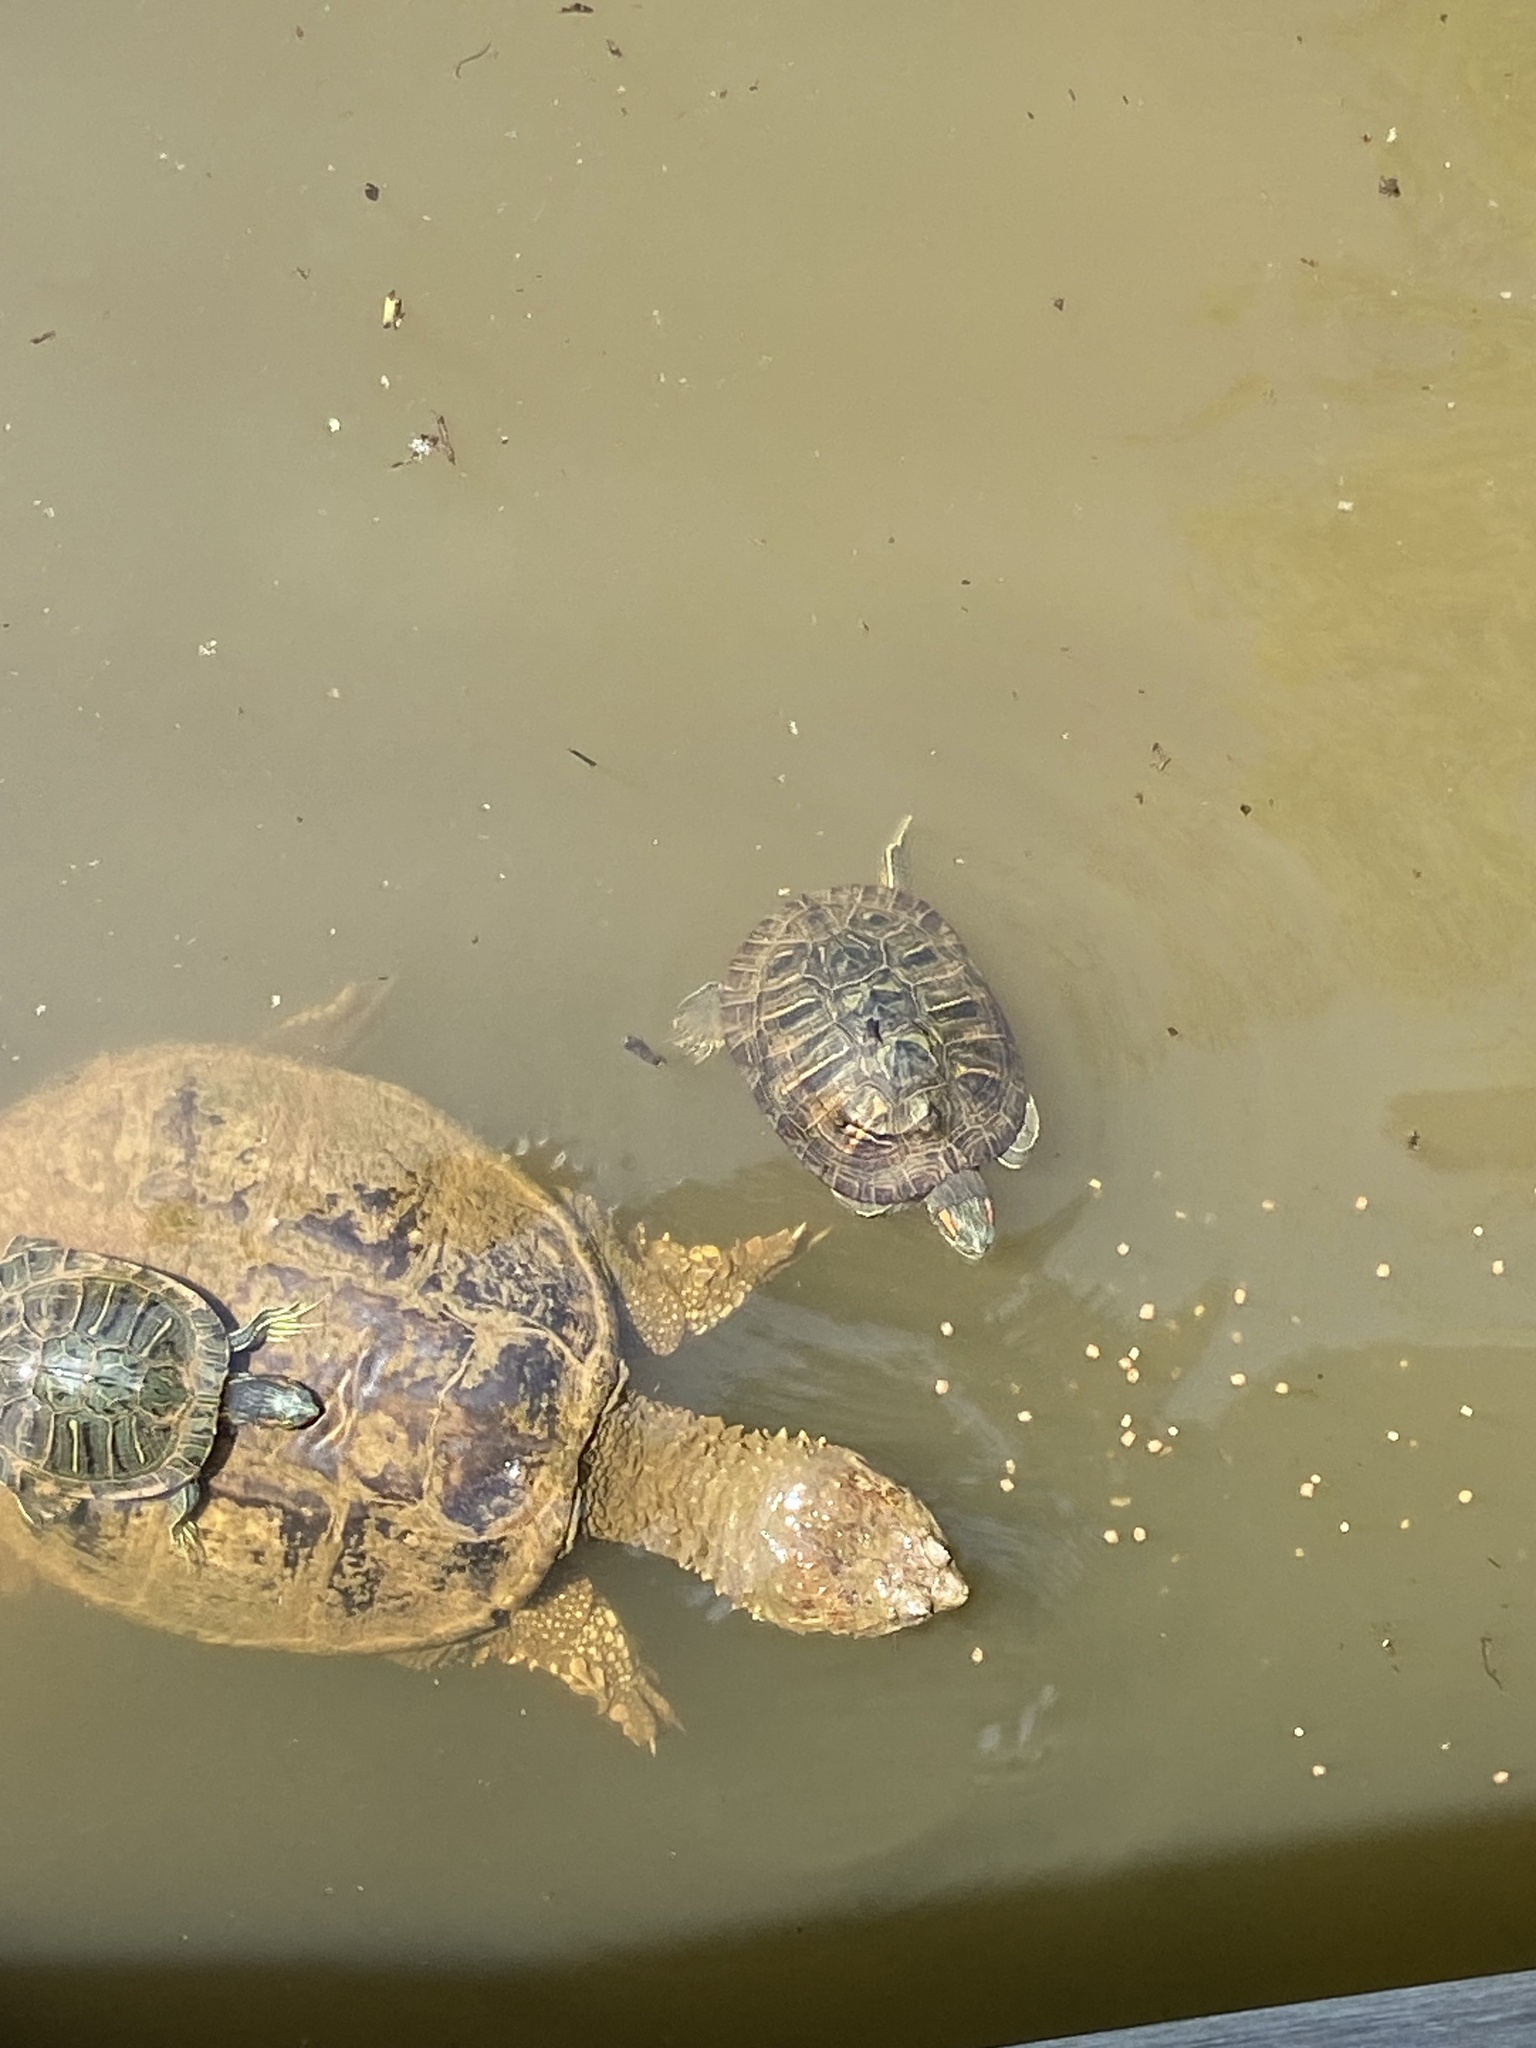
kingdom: Animalia
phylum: Chordata
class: Testudines
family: Chelydridae
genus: Chelydra
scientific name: Chelydra serpentina
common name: Common snapping turtle
